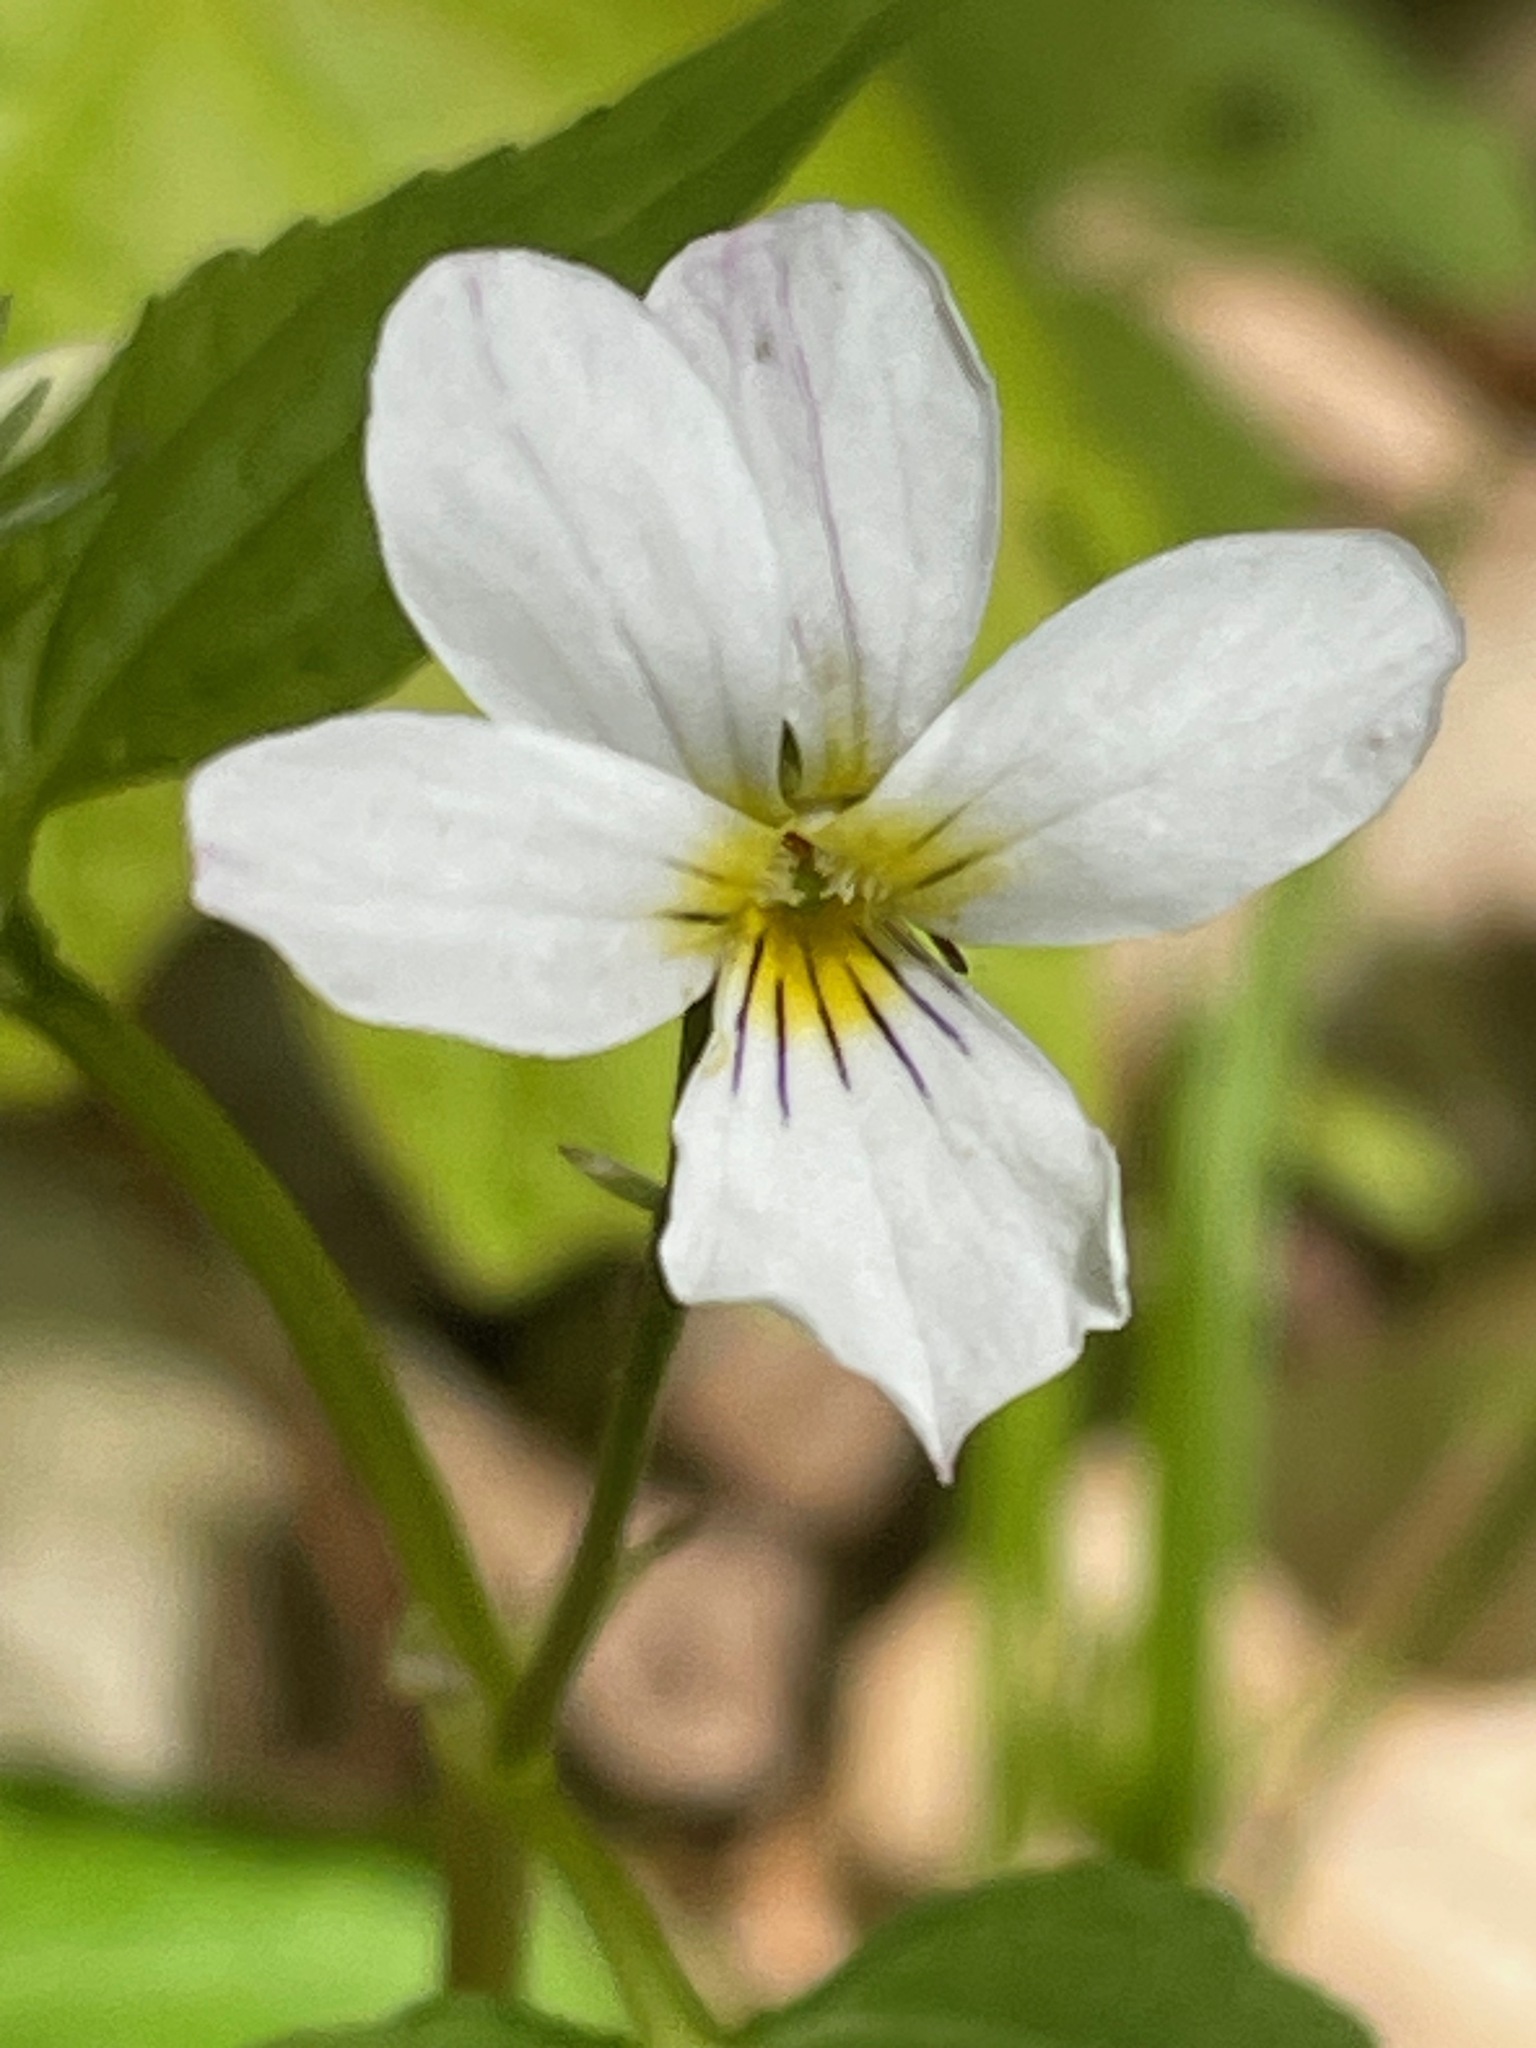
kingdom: Plantae
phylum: Tracheophyta
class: Magnoliopsida
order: Malpighiales
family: Violaceae
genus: Viola
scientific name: Viola canadensis
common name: Canada violet
